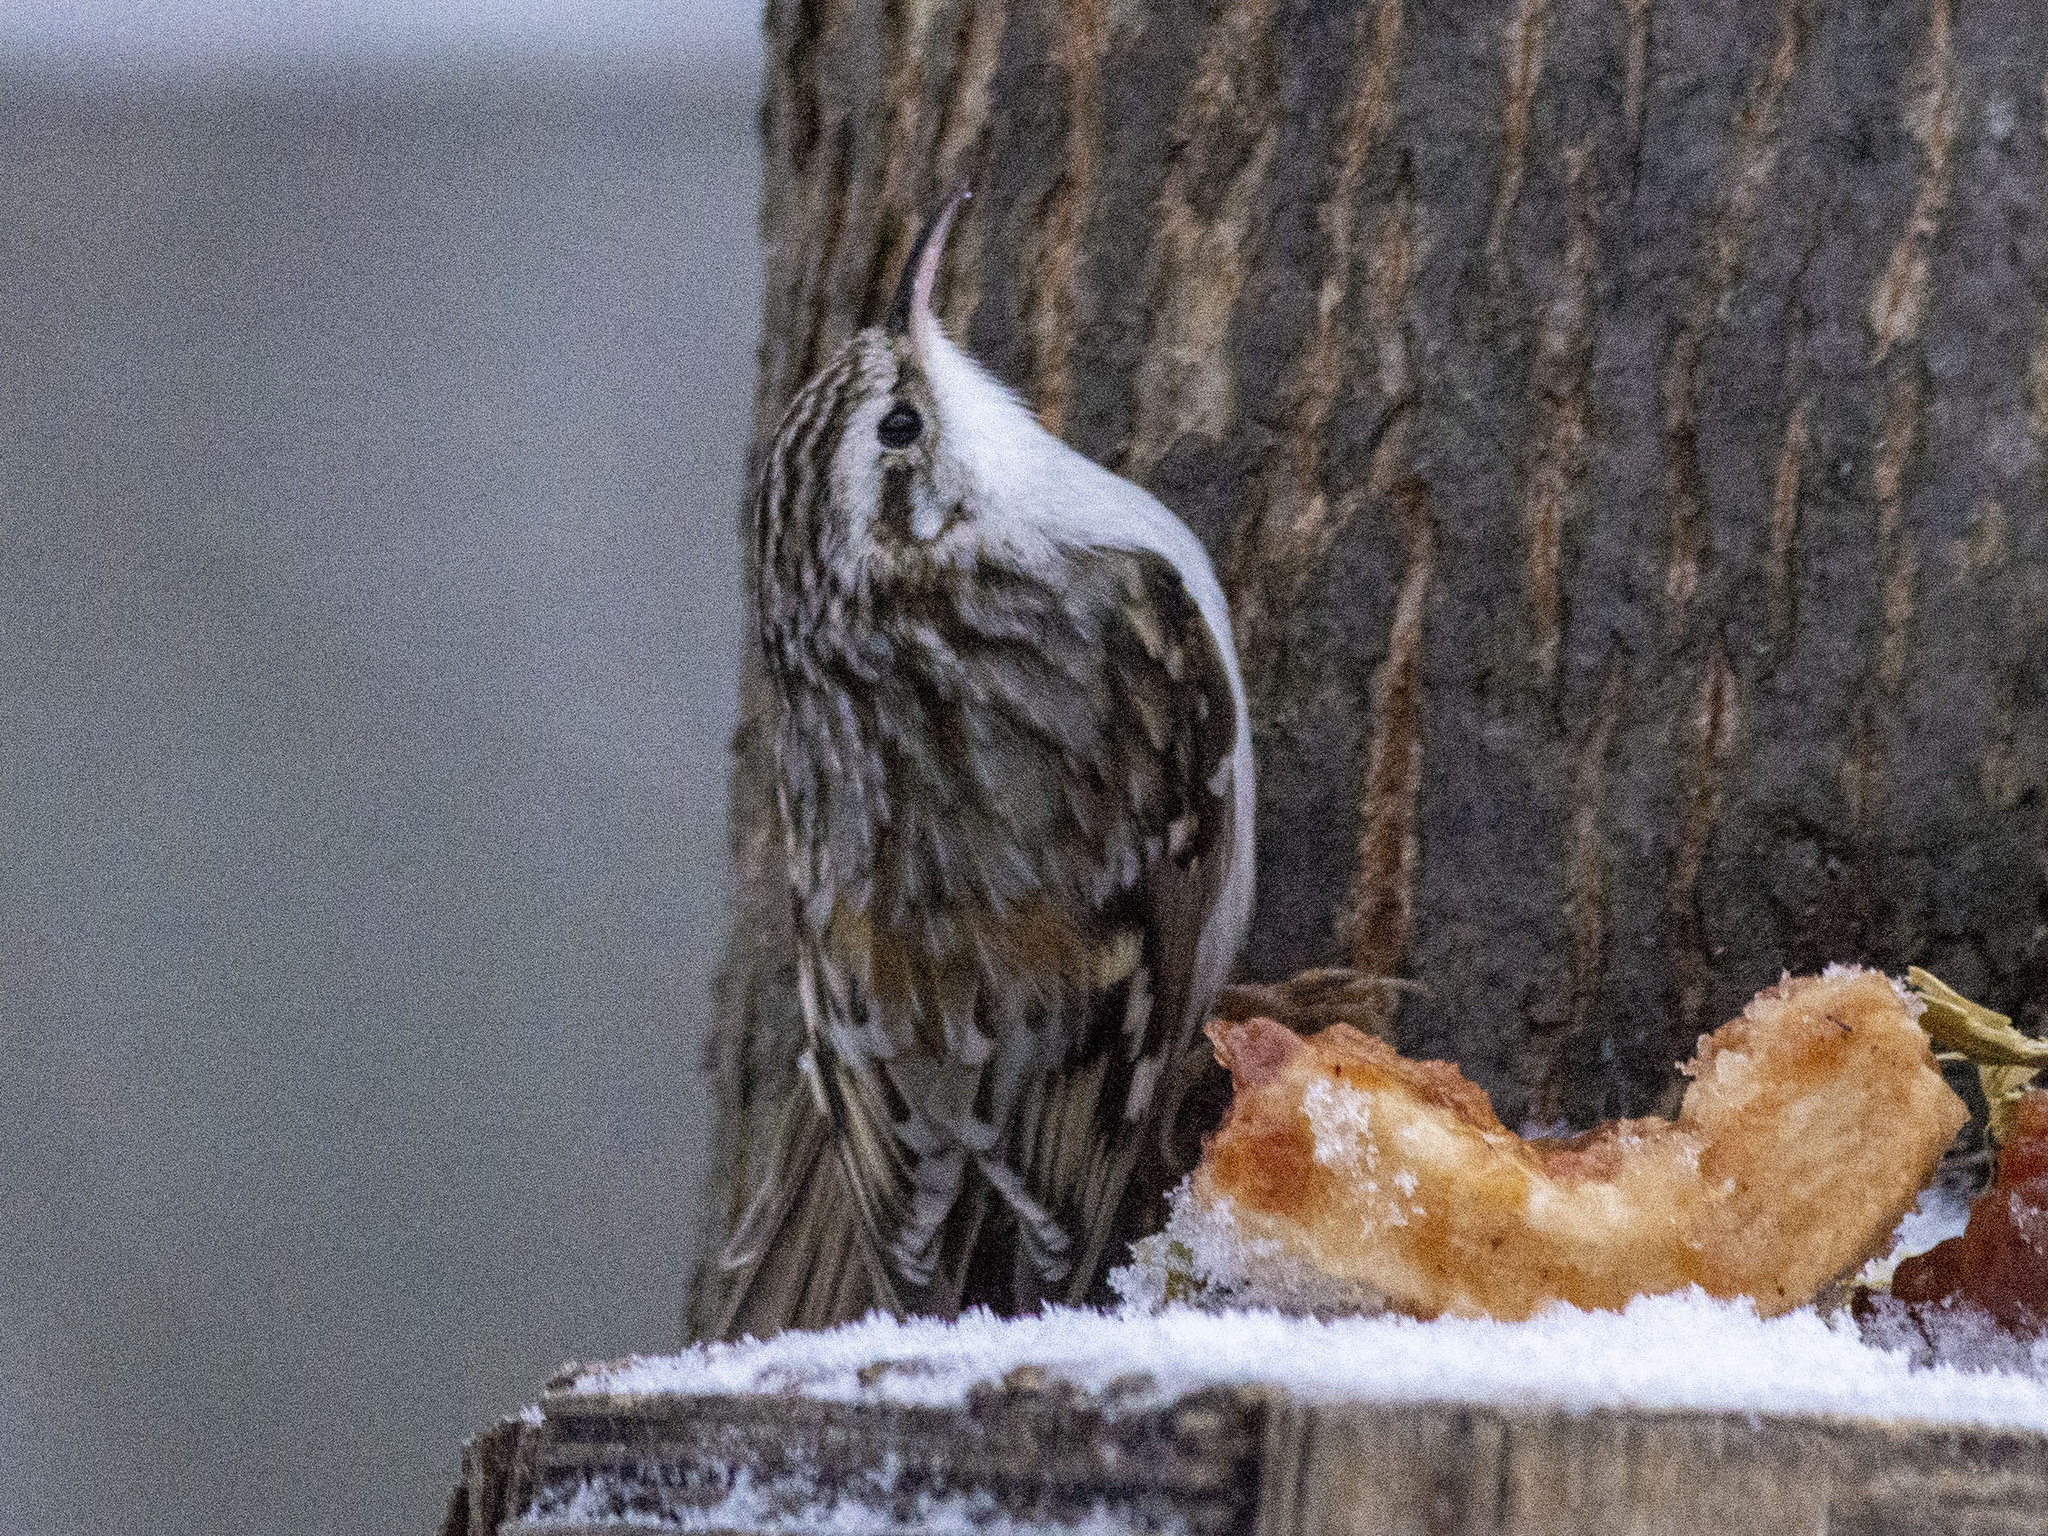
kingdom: Animalia
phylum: Chordata
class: Aves
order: Passeriformes
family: Certhiidae
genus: Certhia
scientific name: Certhia familiaris
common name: Eurasian treecreeper
